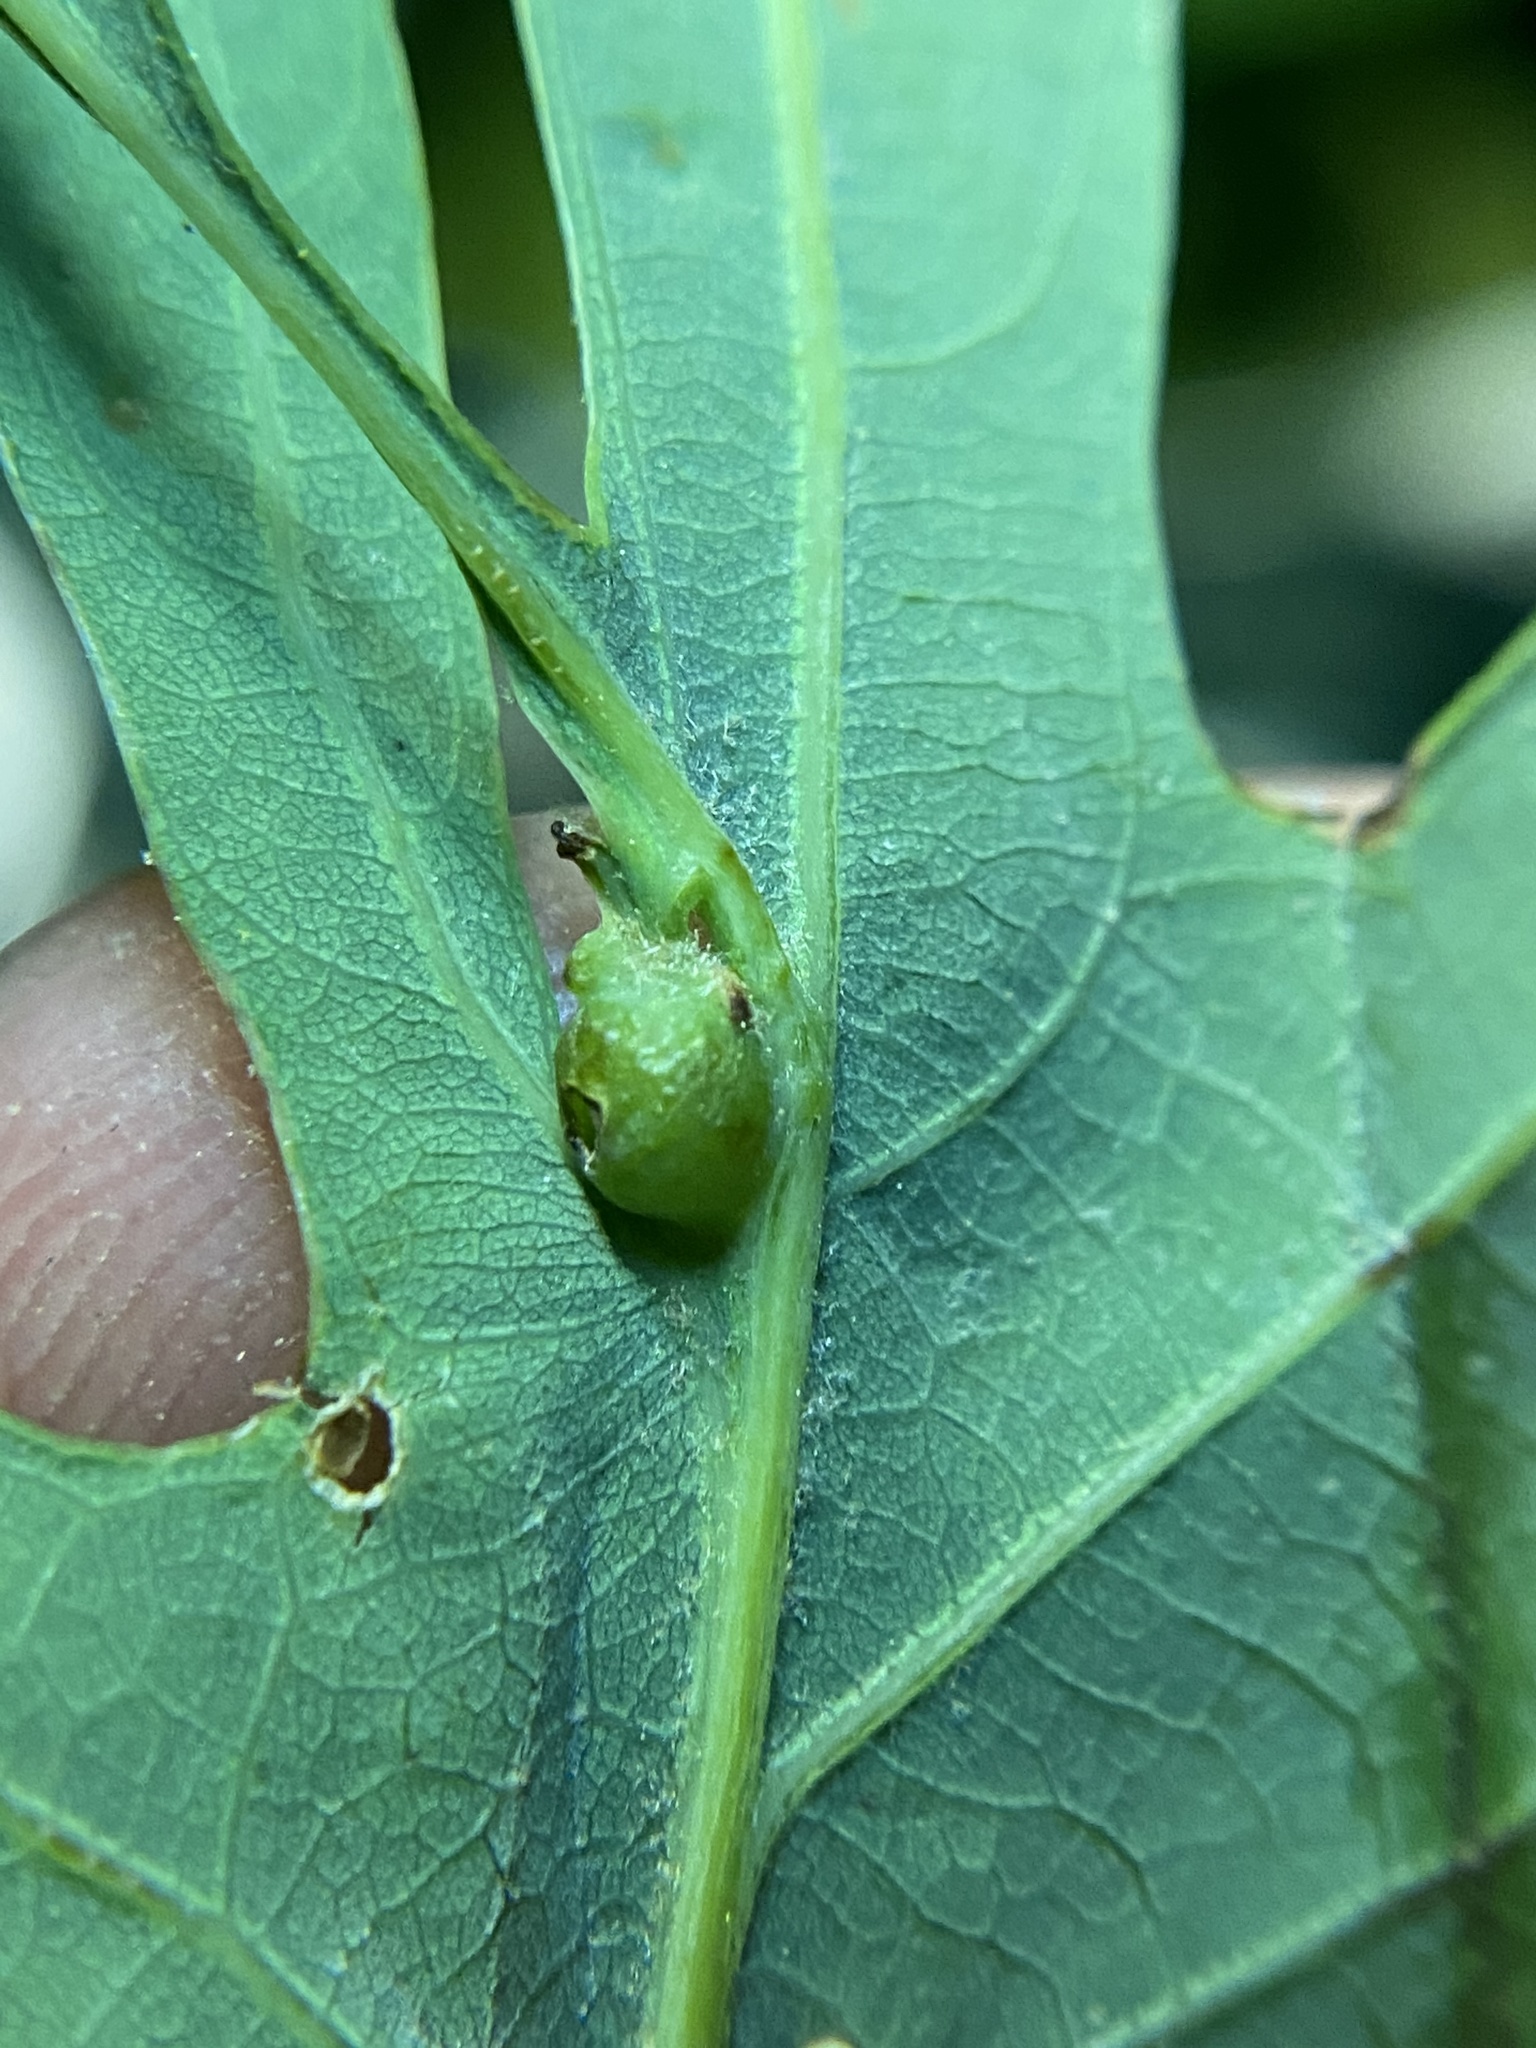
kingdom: Animalia
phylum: Arthropoda
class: Insecta
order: Hymenoptera
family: Cynipidae
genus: Andricus
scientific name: Andricus
